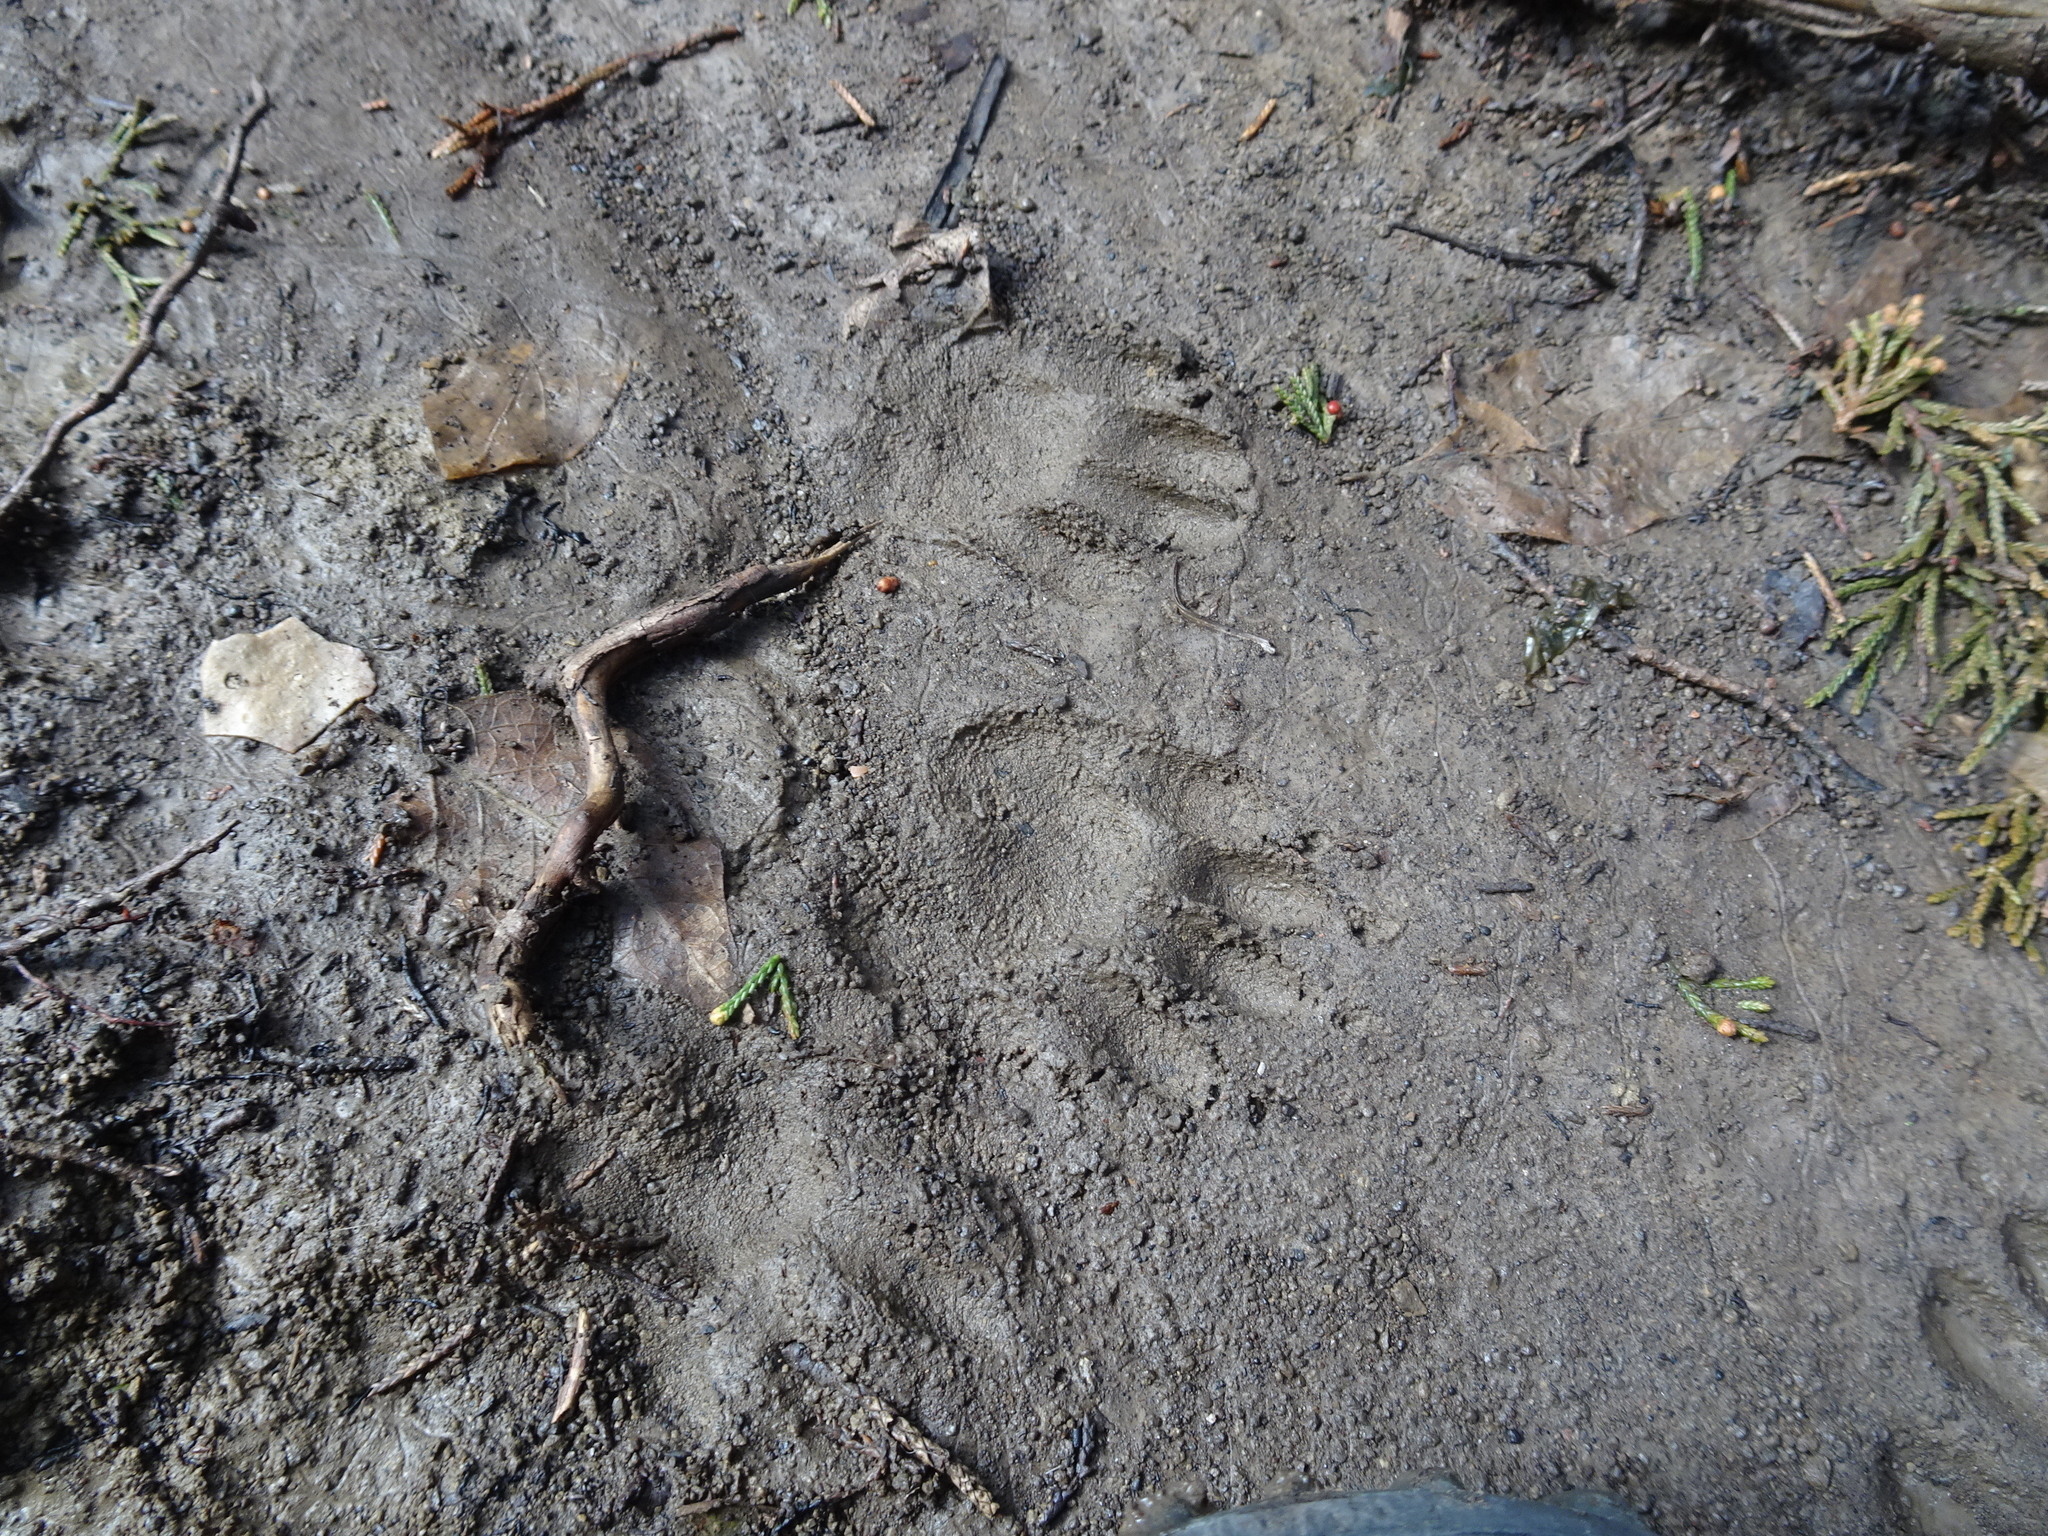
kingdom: Animalia
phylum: Chordata
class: Mammalia
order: Carnivora
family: Procyonidae
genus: Procyon
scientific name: Procyon lotor
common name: Raccoon
